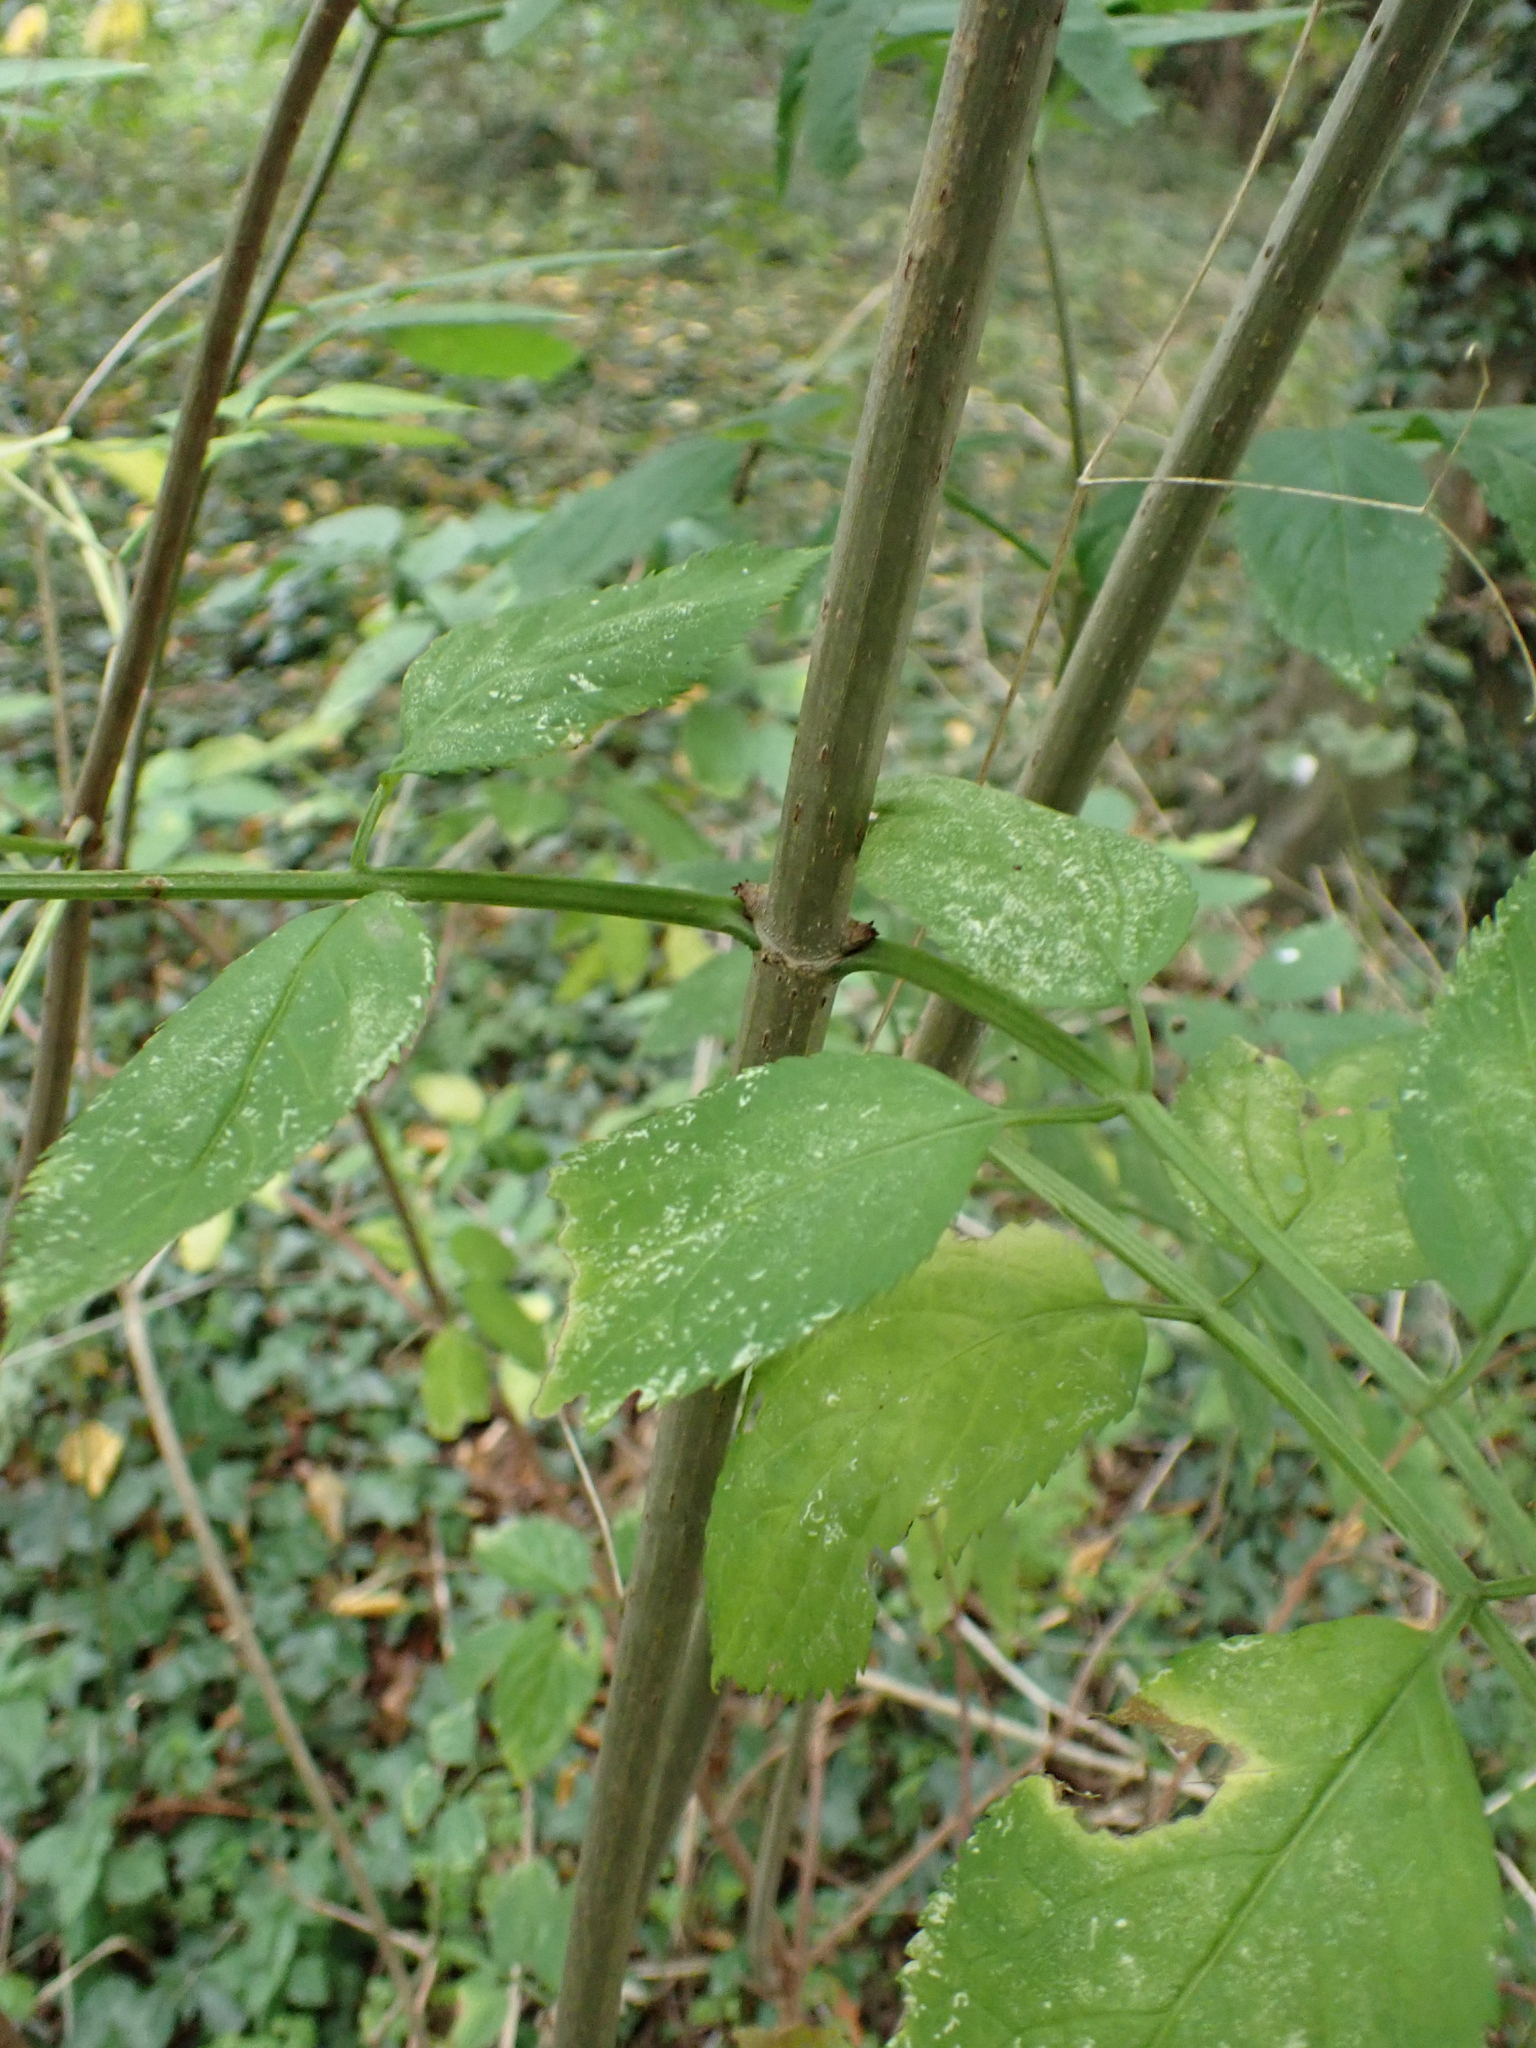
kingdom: Plantae
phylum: Tracheophyta
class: Magnoliopsida
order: Dipsacales
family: Viburnaceae
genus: Sambucus
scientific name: Sambucus nigra
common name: Elder
